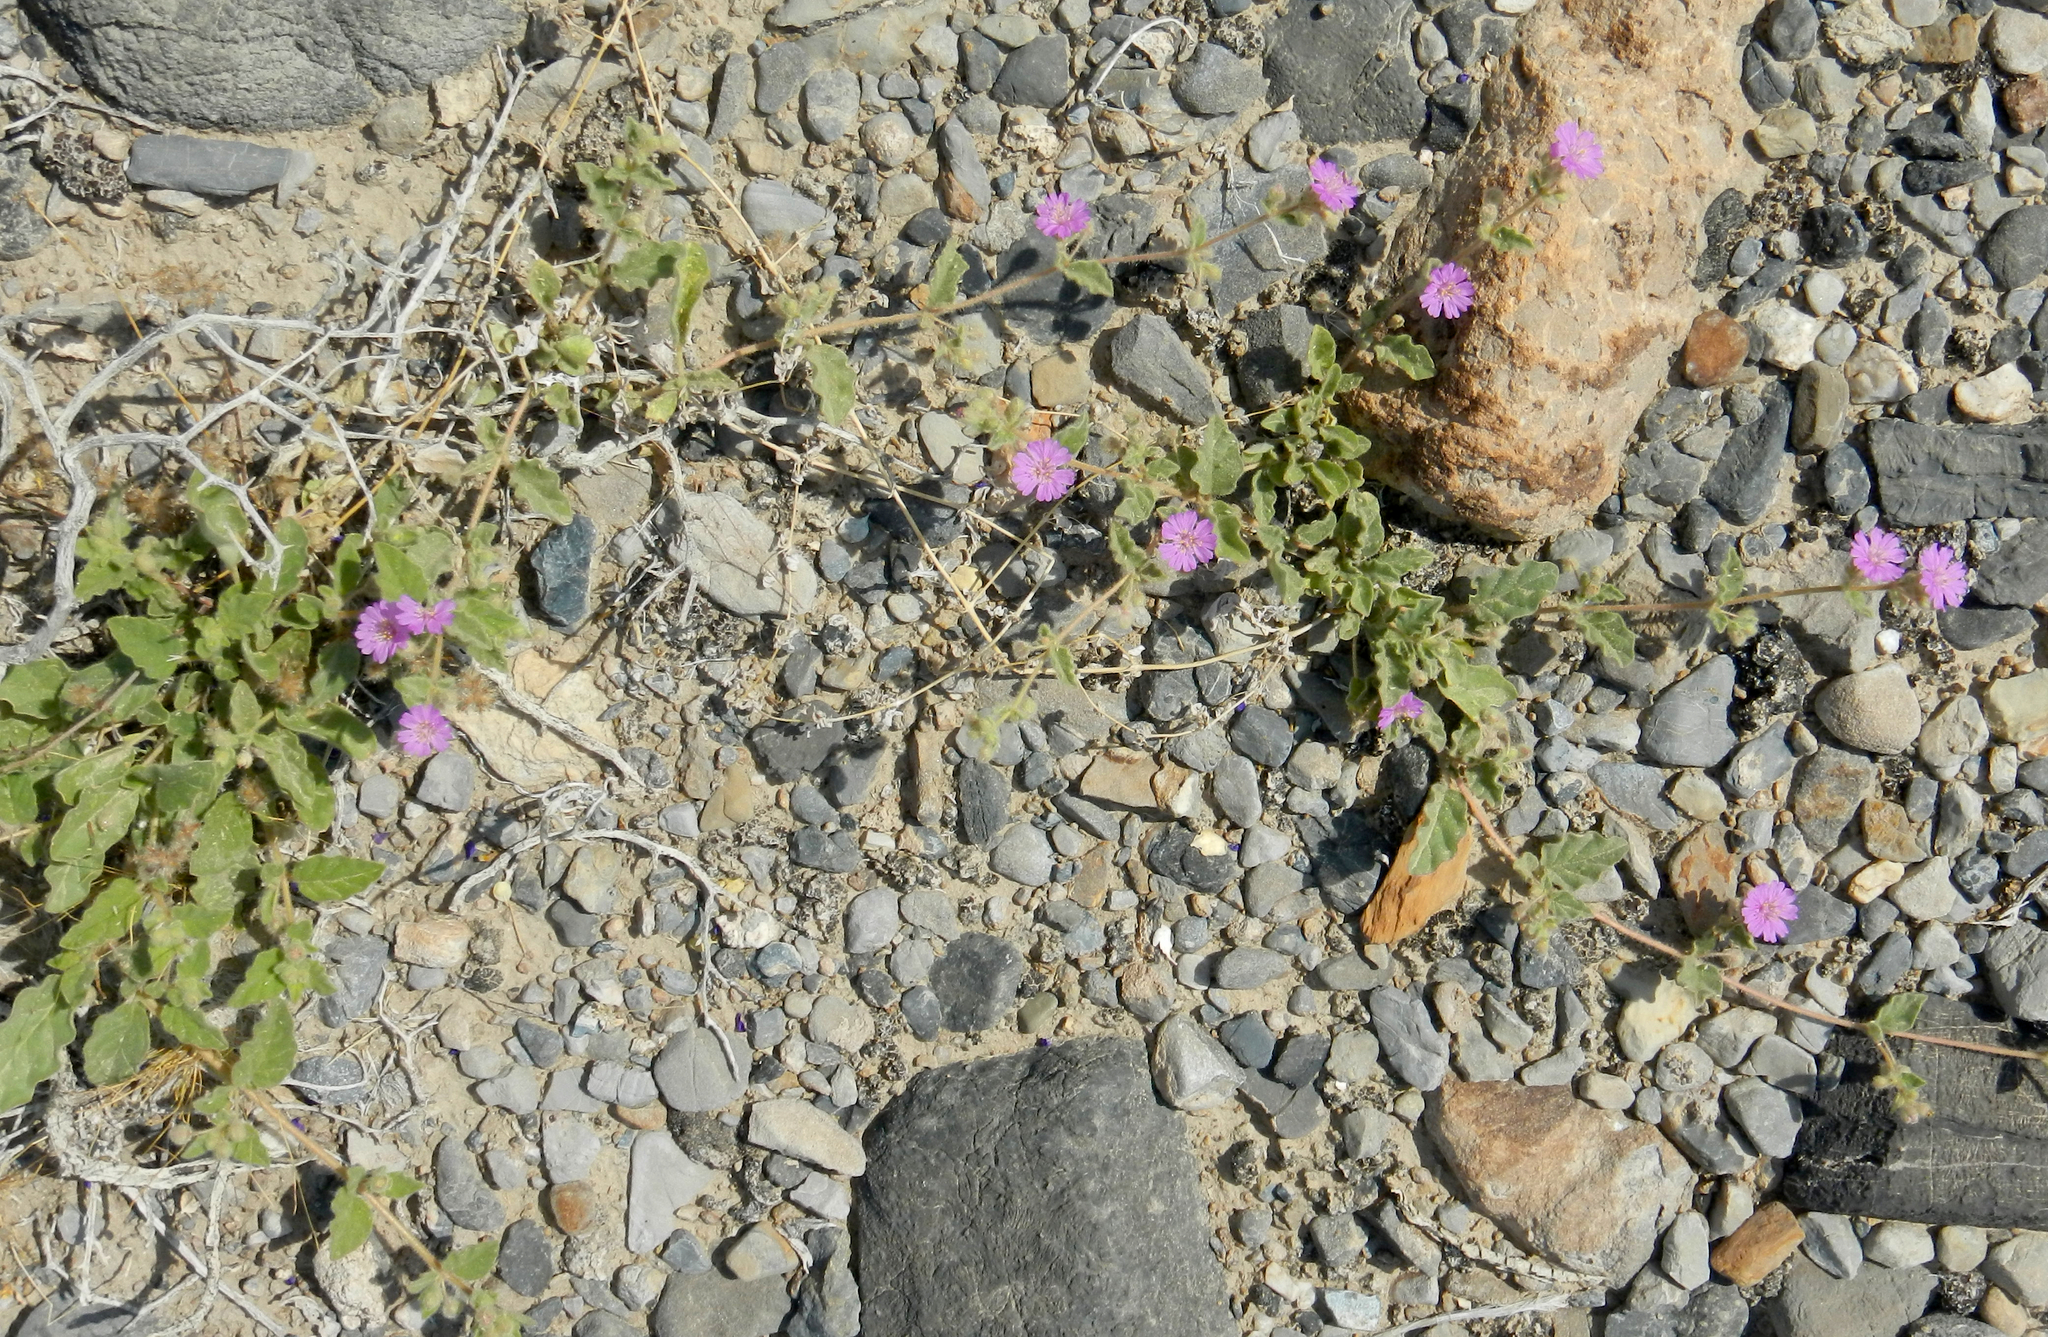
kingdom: Plantae
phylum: Tracheophyta
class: Magnoliopsida
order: Caryophyllales
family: Nyctaginaceae
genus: Allionia
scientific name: Allionia incarnata
